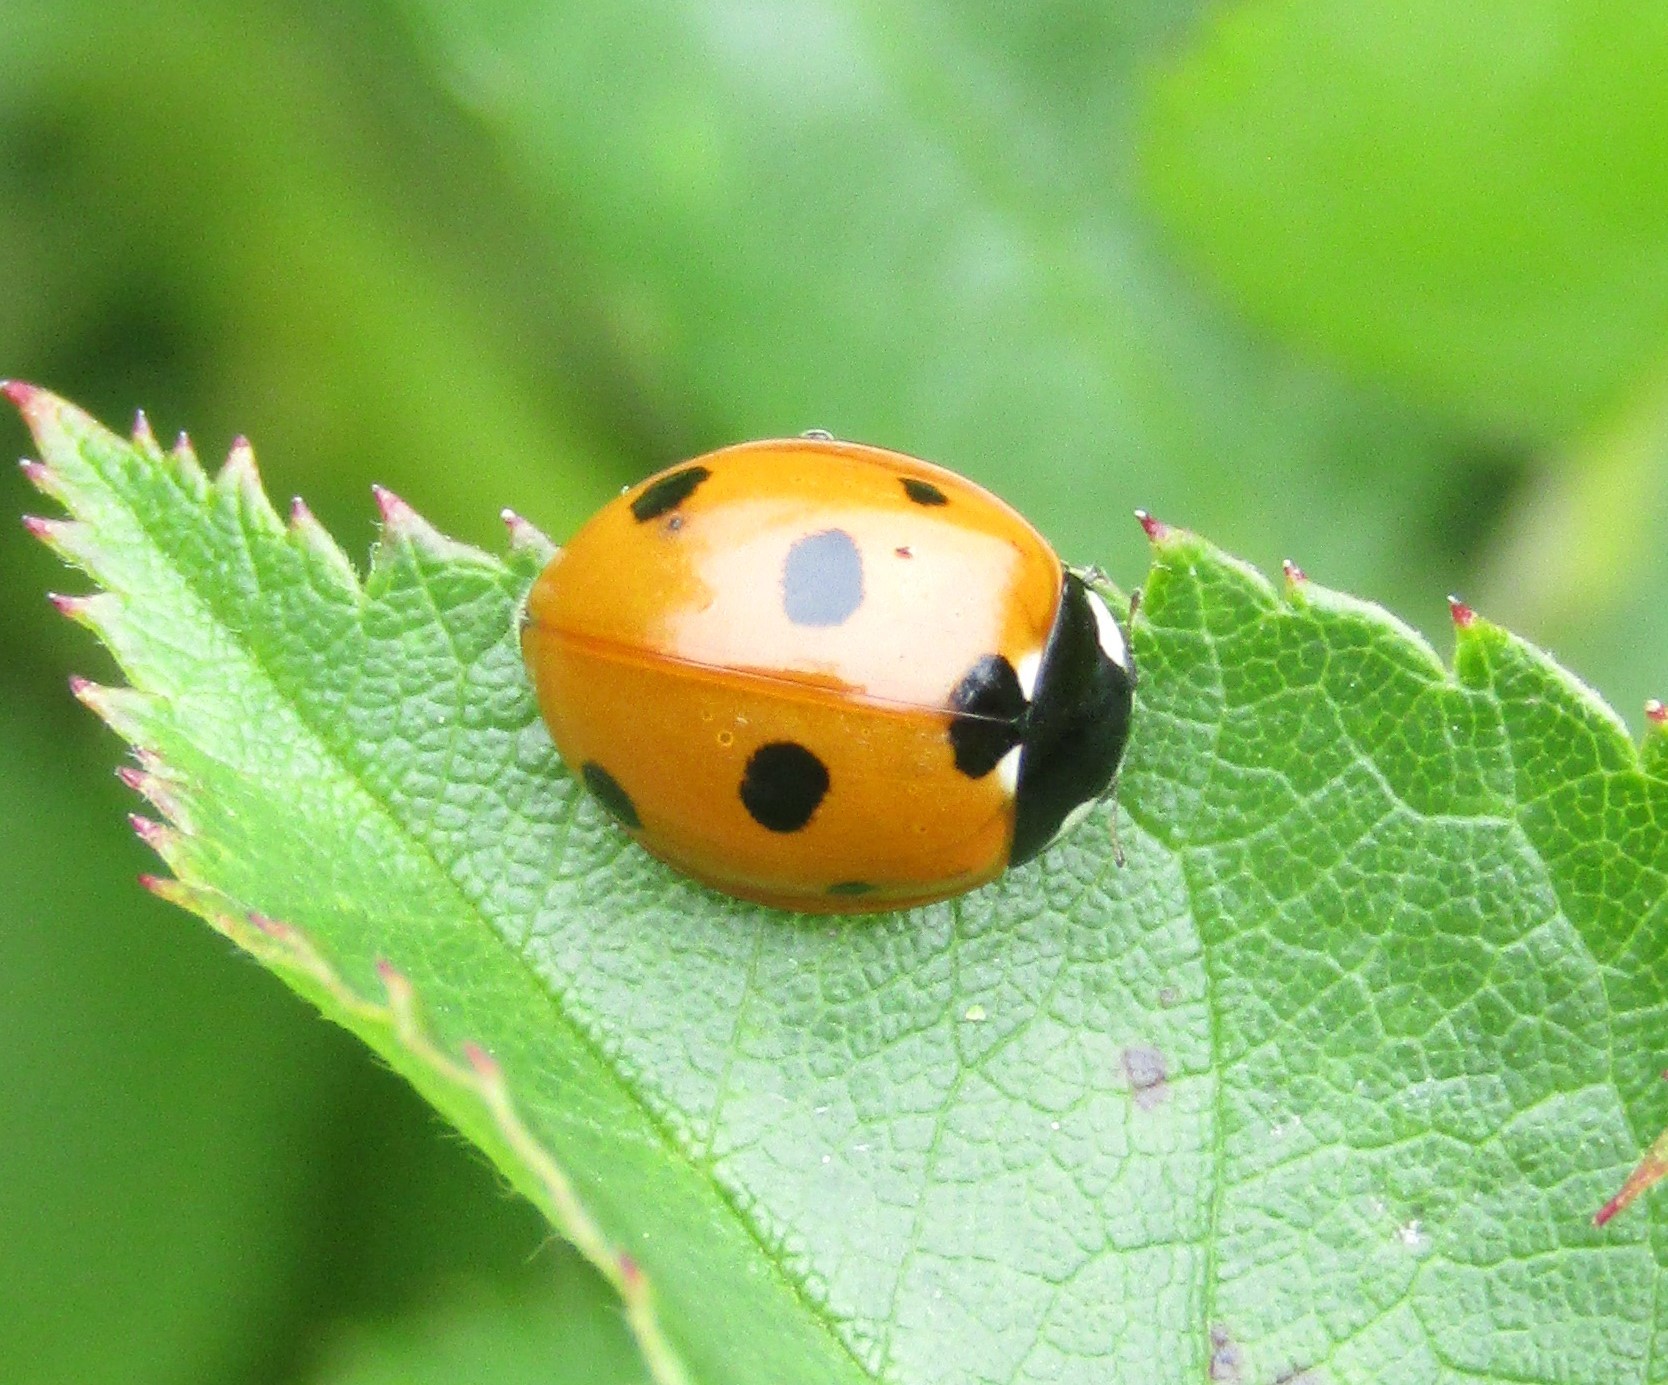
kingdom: Animalia
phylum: Arthropoda
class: Insecta
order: Coleoptera
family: Coccinellidae
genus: Coccinella
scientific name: Coccinella septempunctata
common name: Sevenspotted lady beetle
